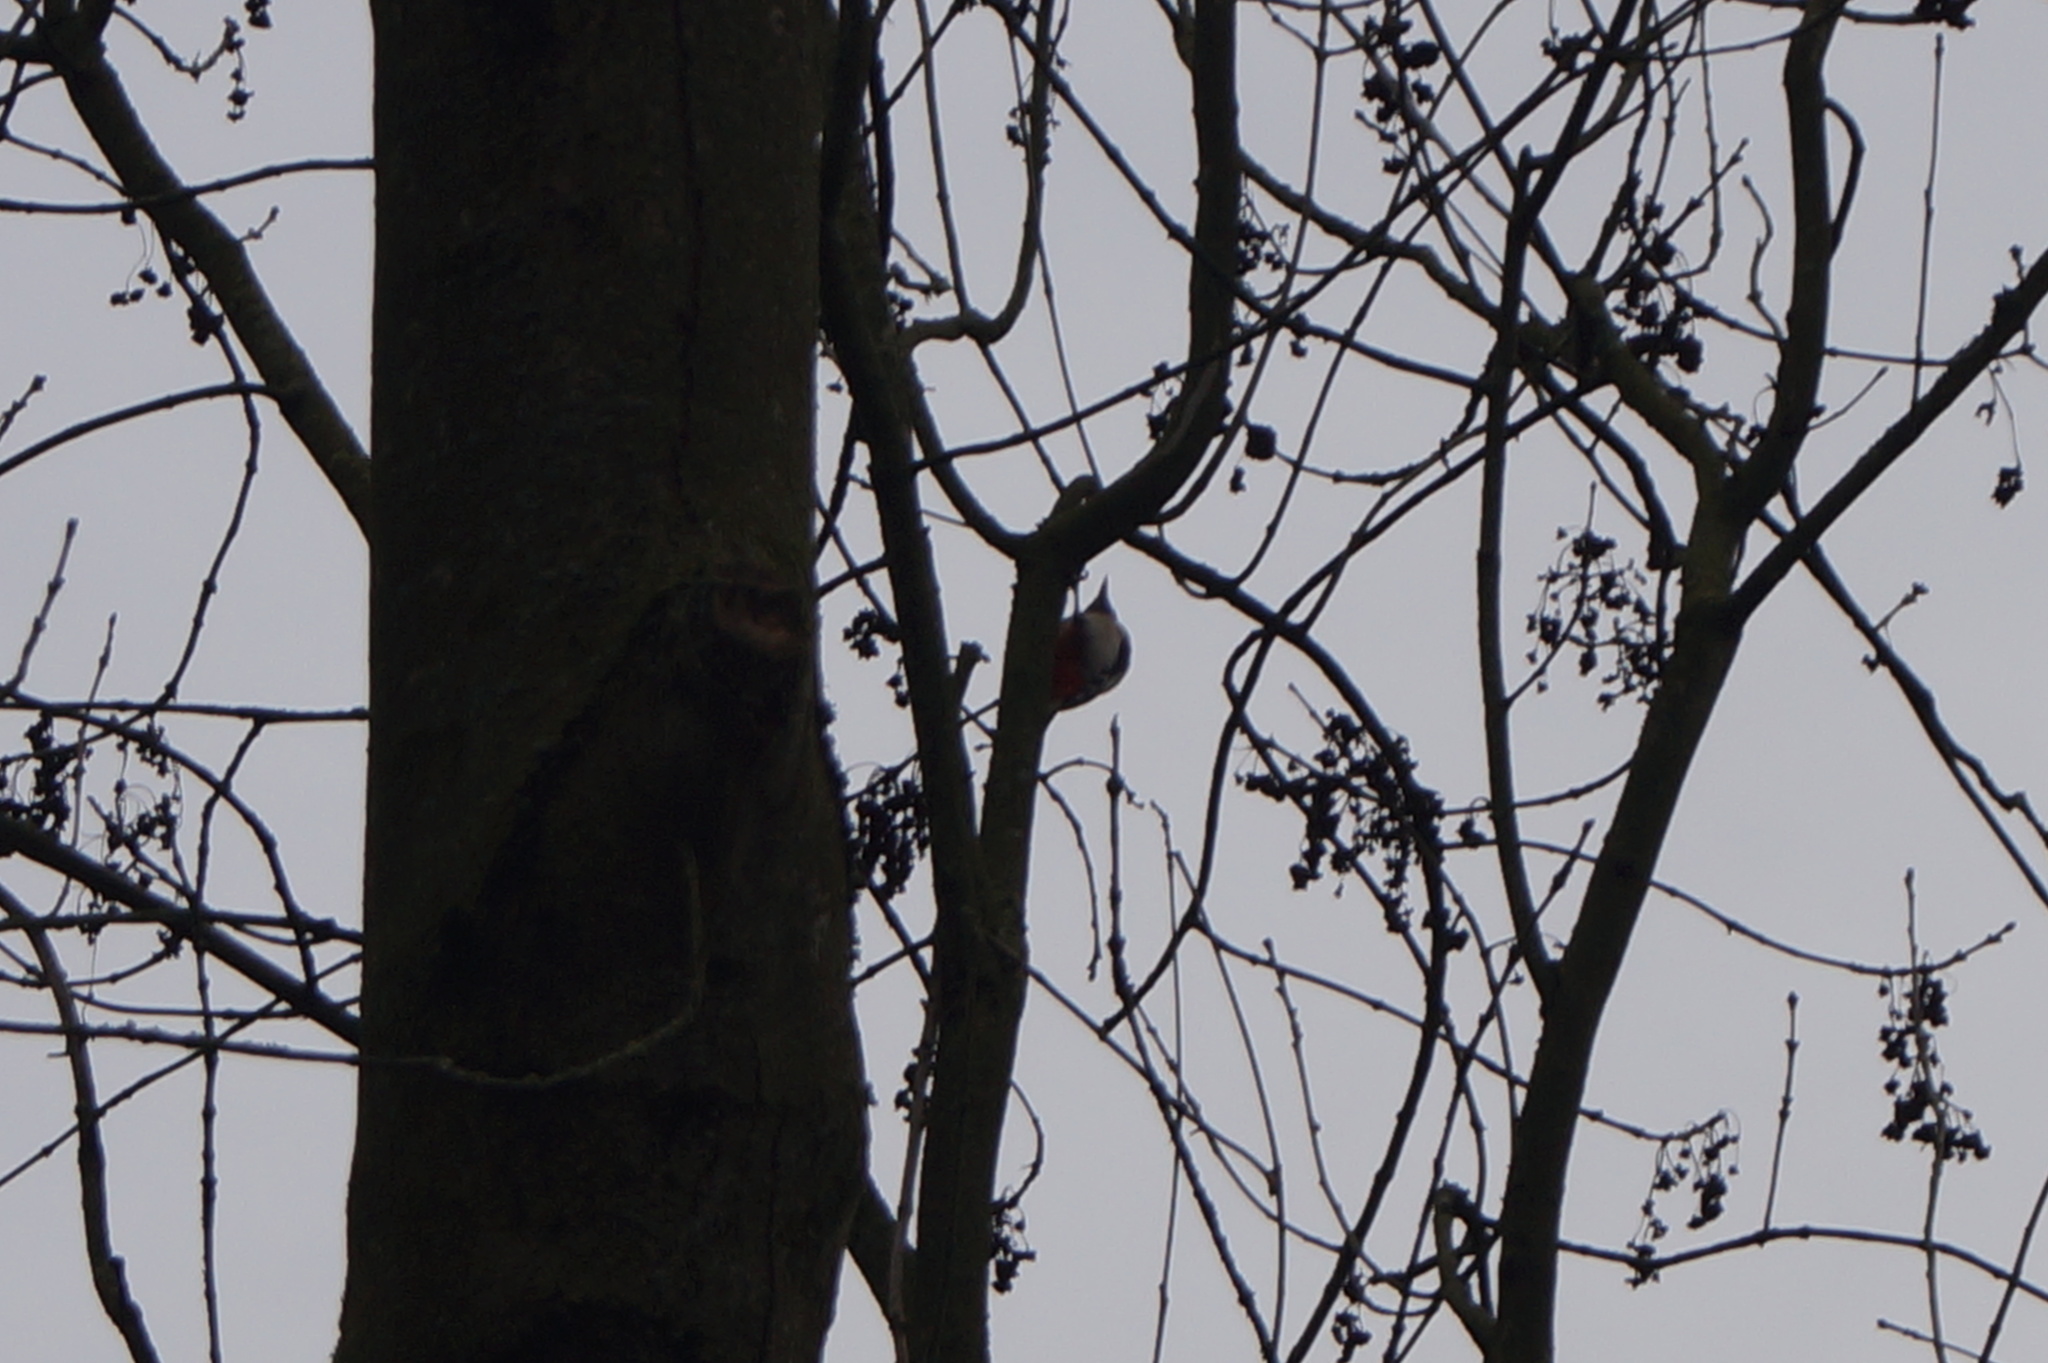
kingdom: Animalia
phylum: Chordata
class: Aves
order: Piciformes
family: Picidae
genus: Dendrocopos
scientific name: Dendrocopos major
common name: Great spotted woodpecker
